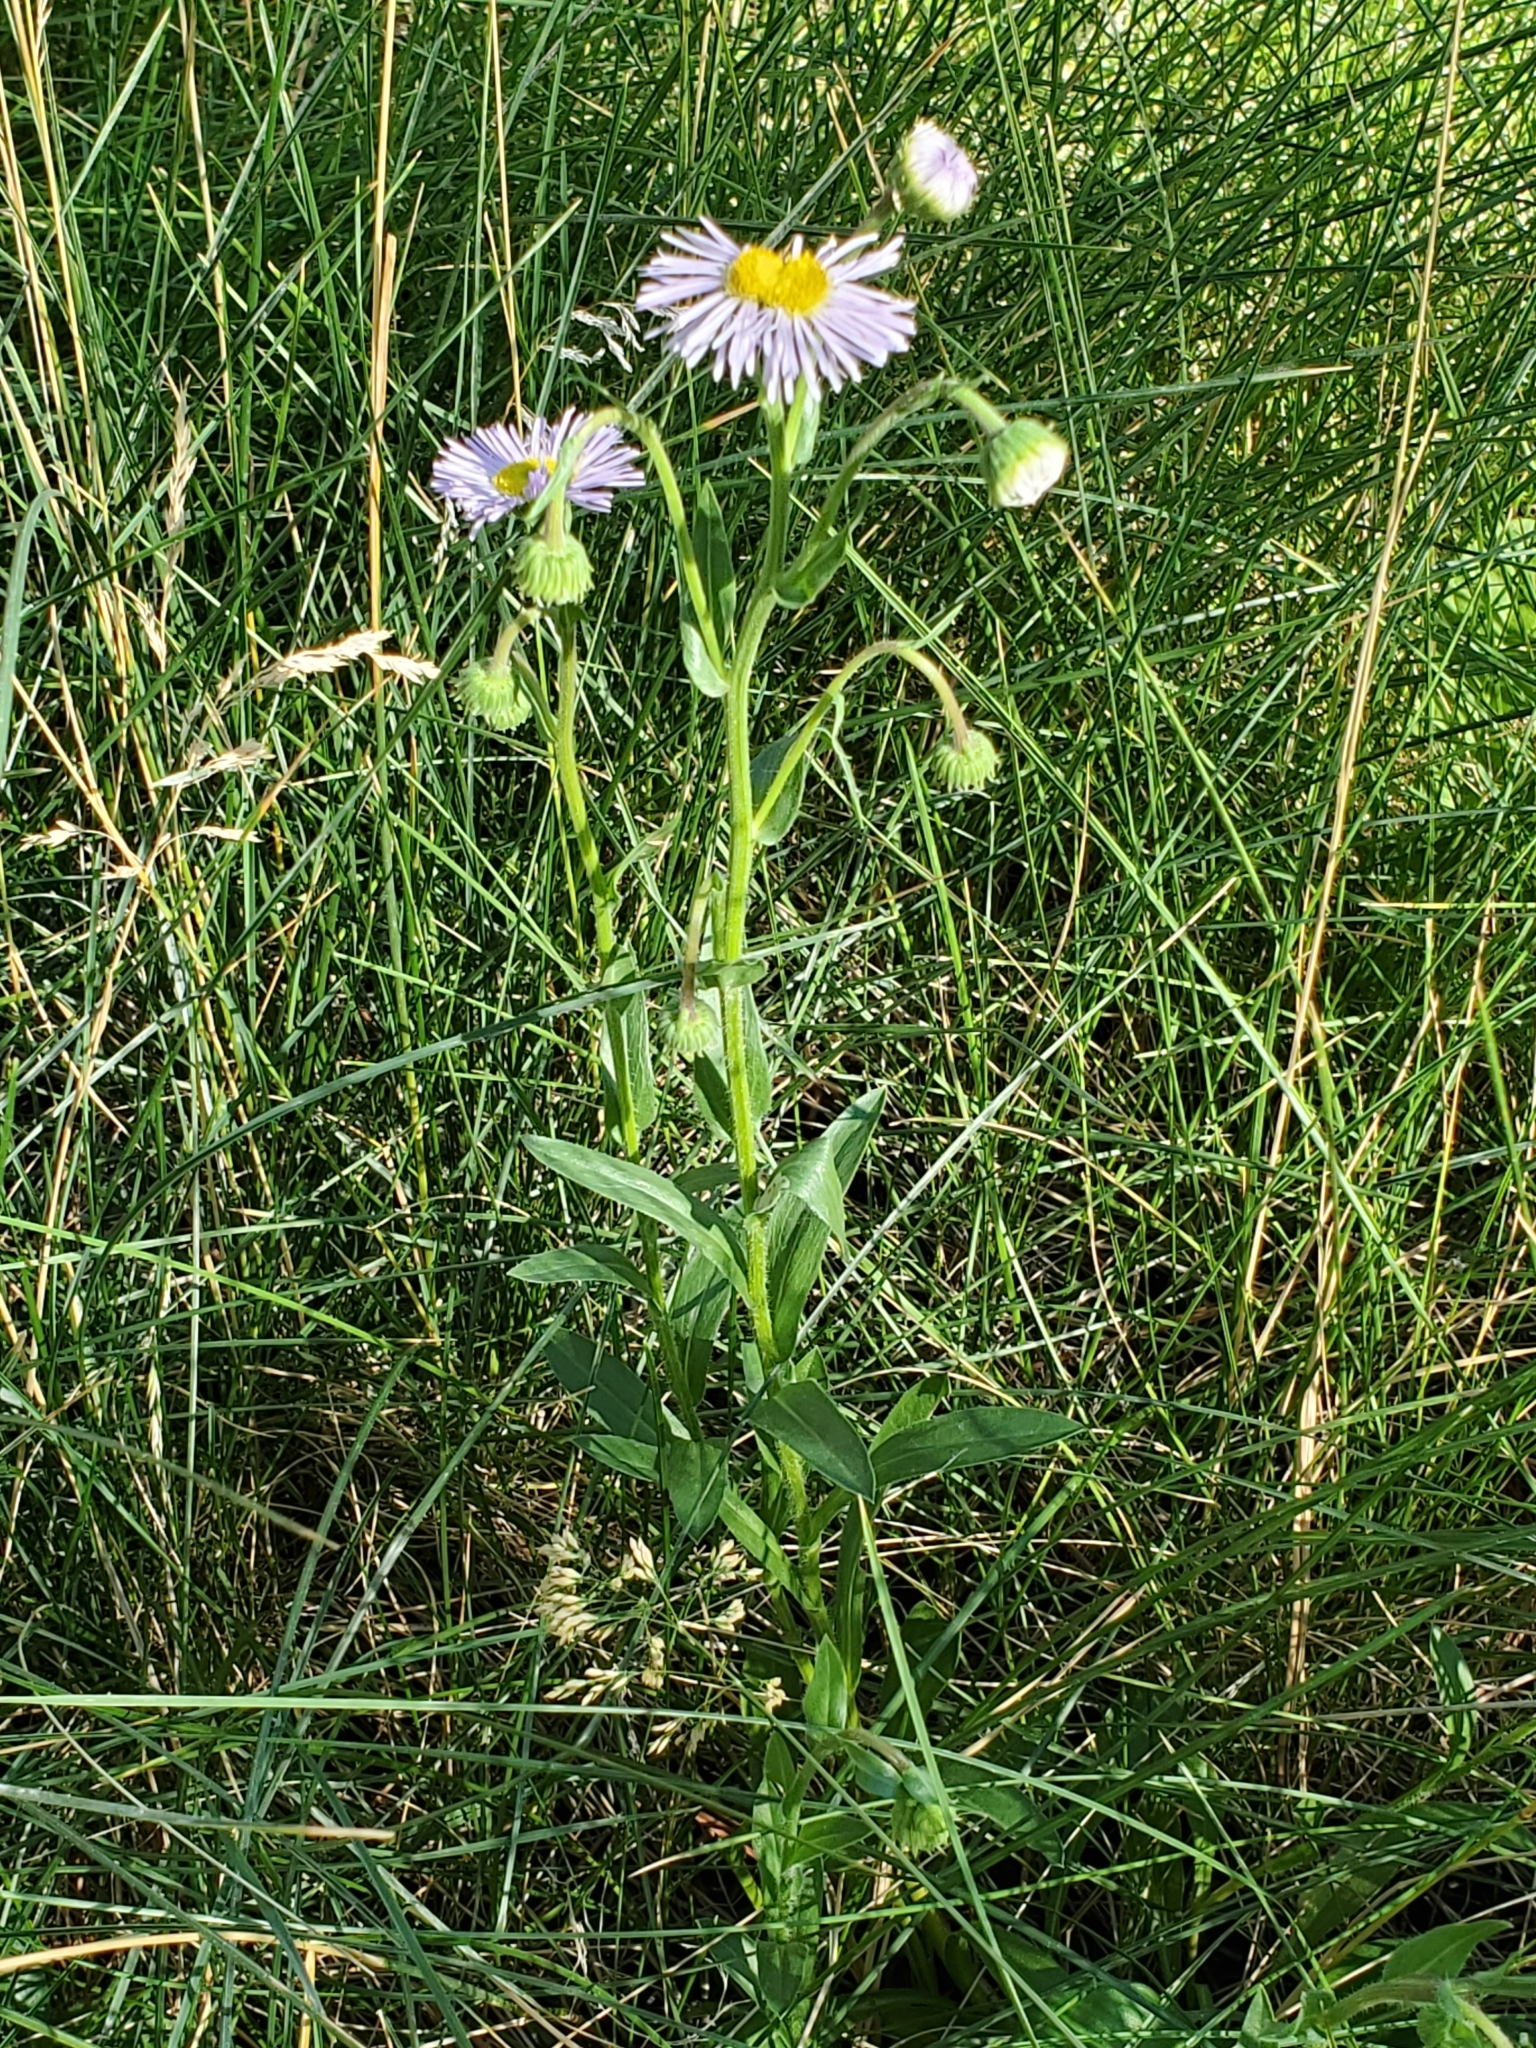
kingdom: Plantae
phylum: Tracheophyta
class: Magnoliopsida
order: Asterales
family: Asteraceae
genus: Erigeron
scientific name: Erigeron speciosus
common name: Aspen fleabane
